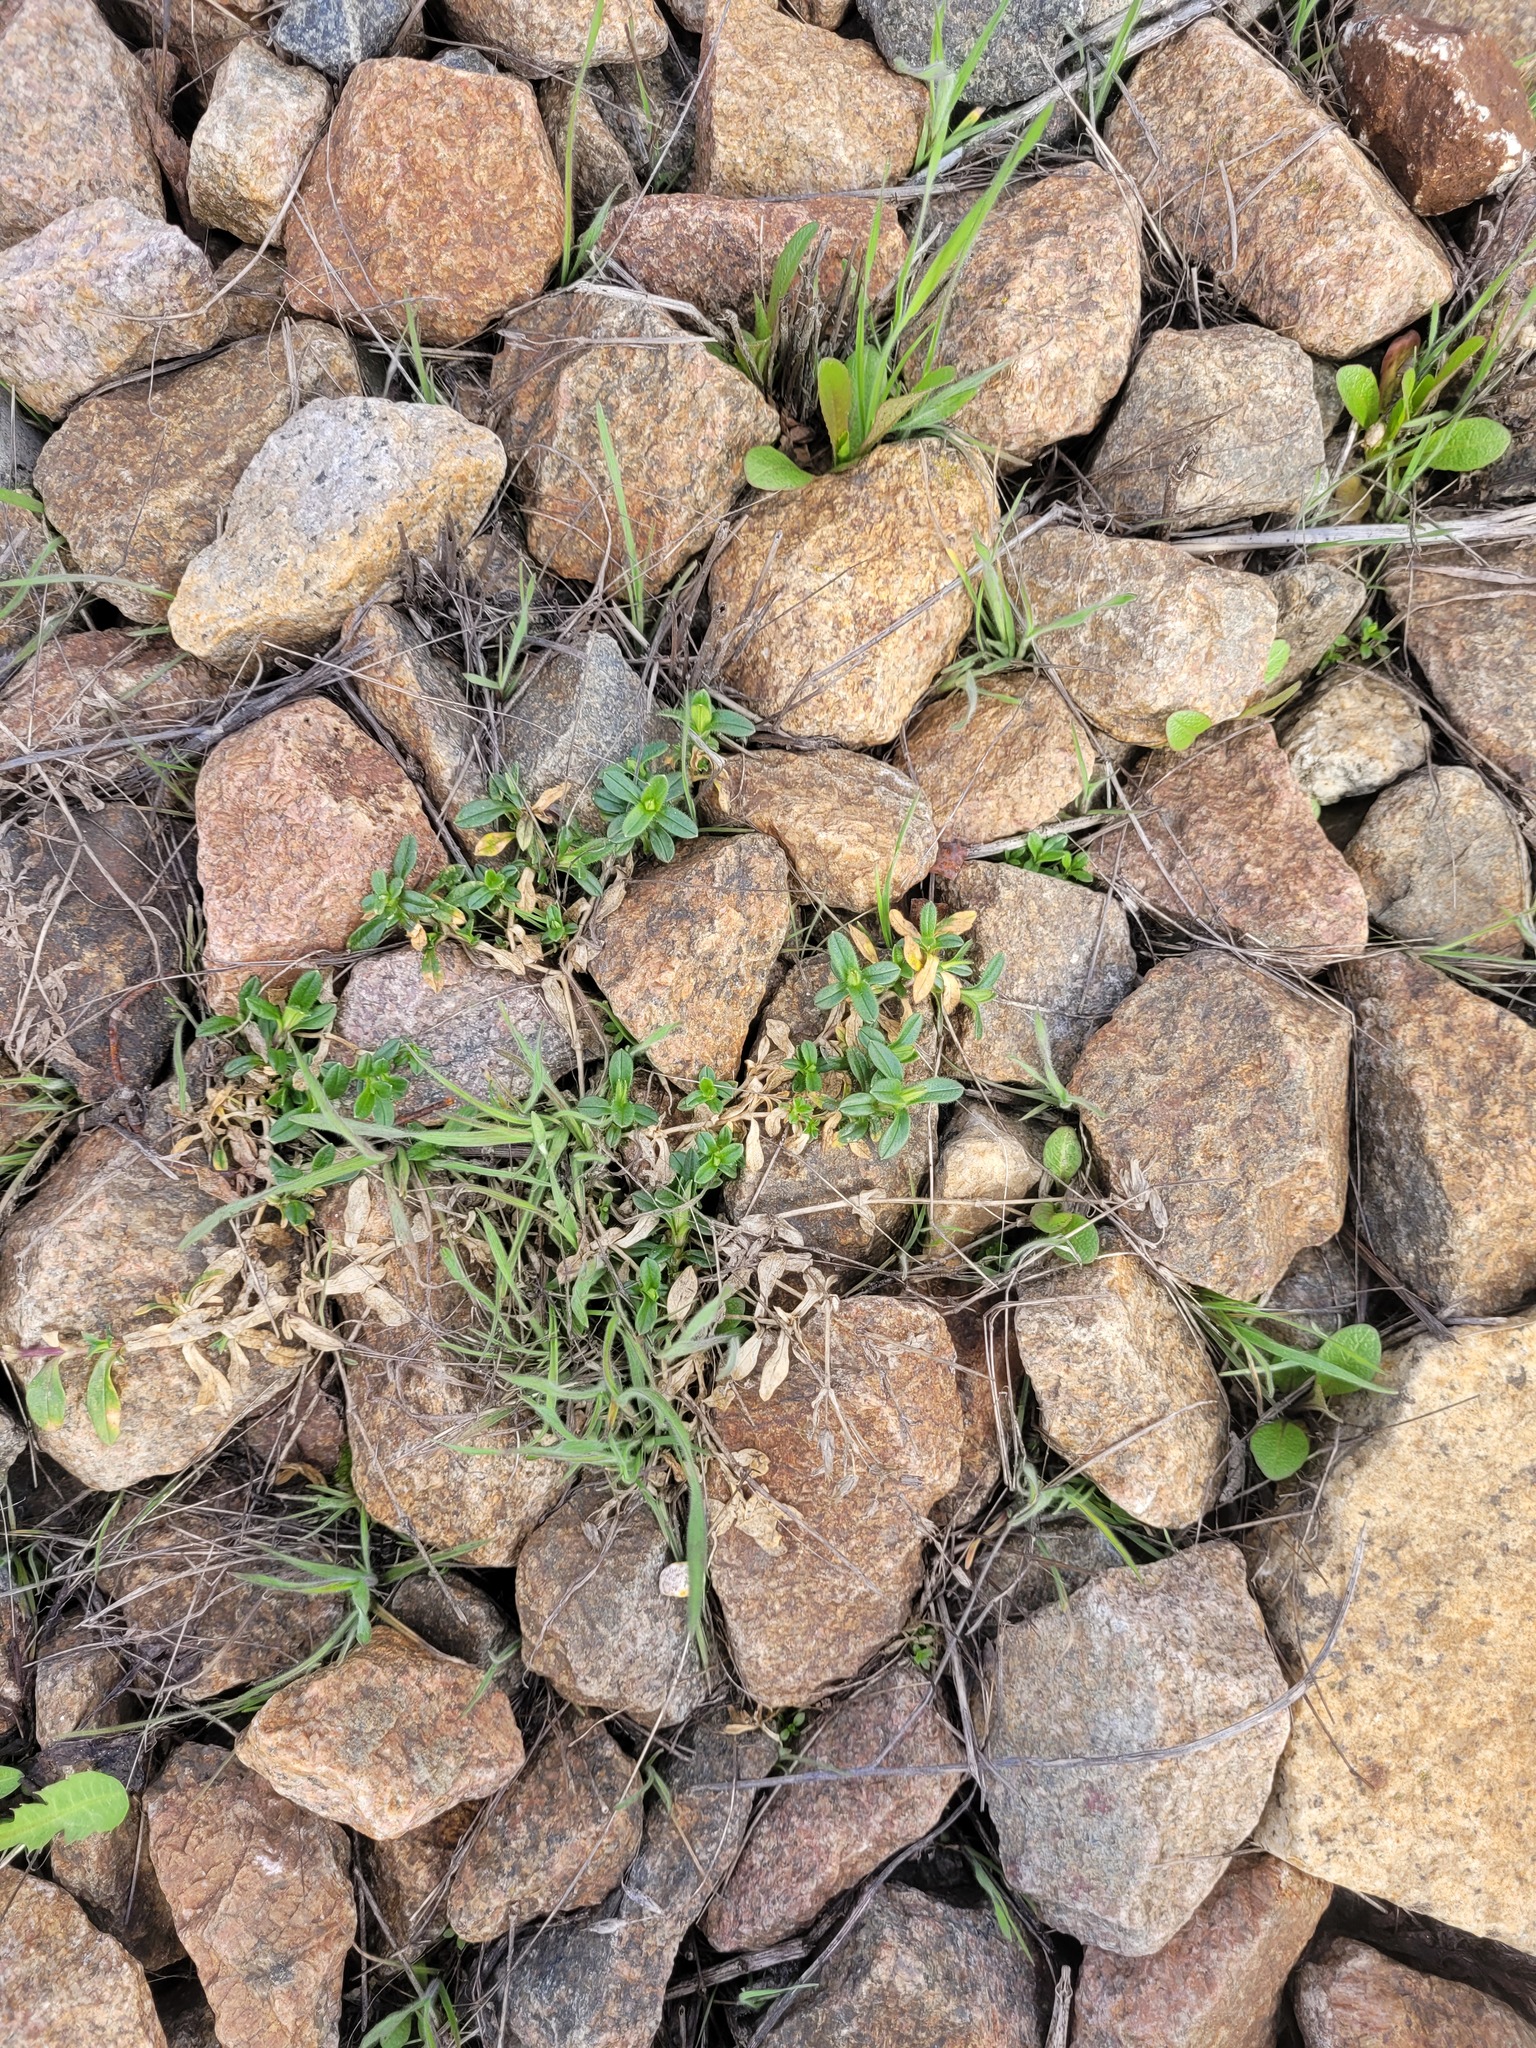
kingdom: Plantae
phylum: Tracheophyta
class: Magnoliopsida
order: Caryophyllales
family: Caryophyllaceae
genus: Cerastium
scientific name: Cerastium holosteoides
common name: Big chickweed
